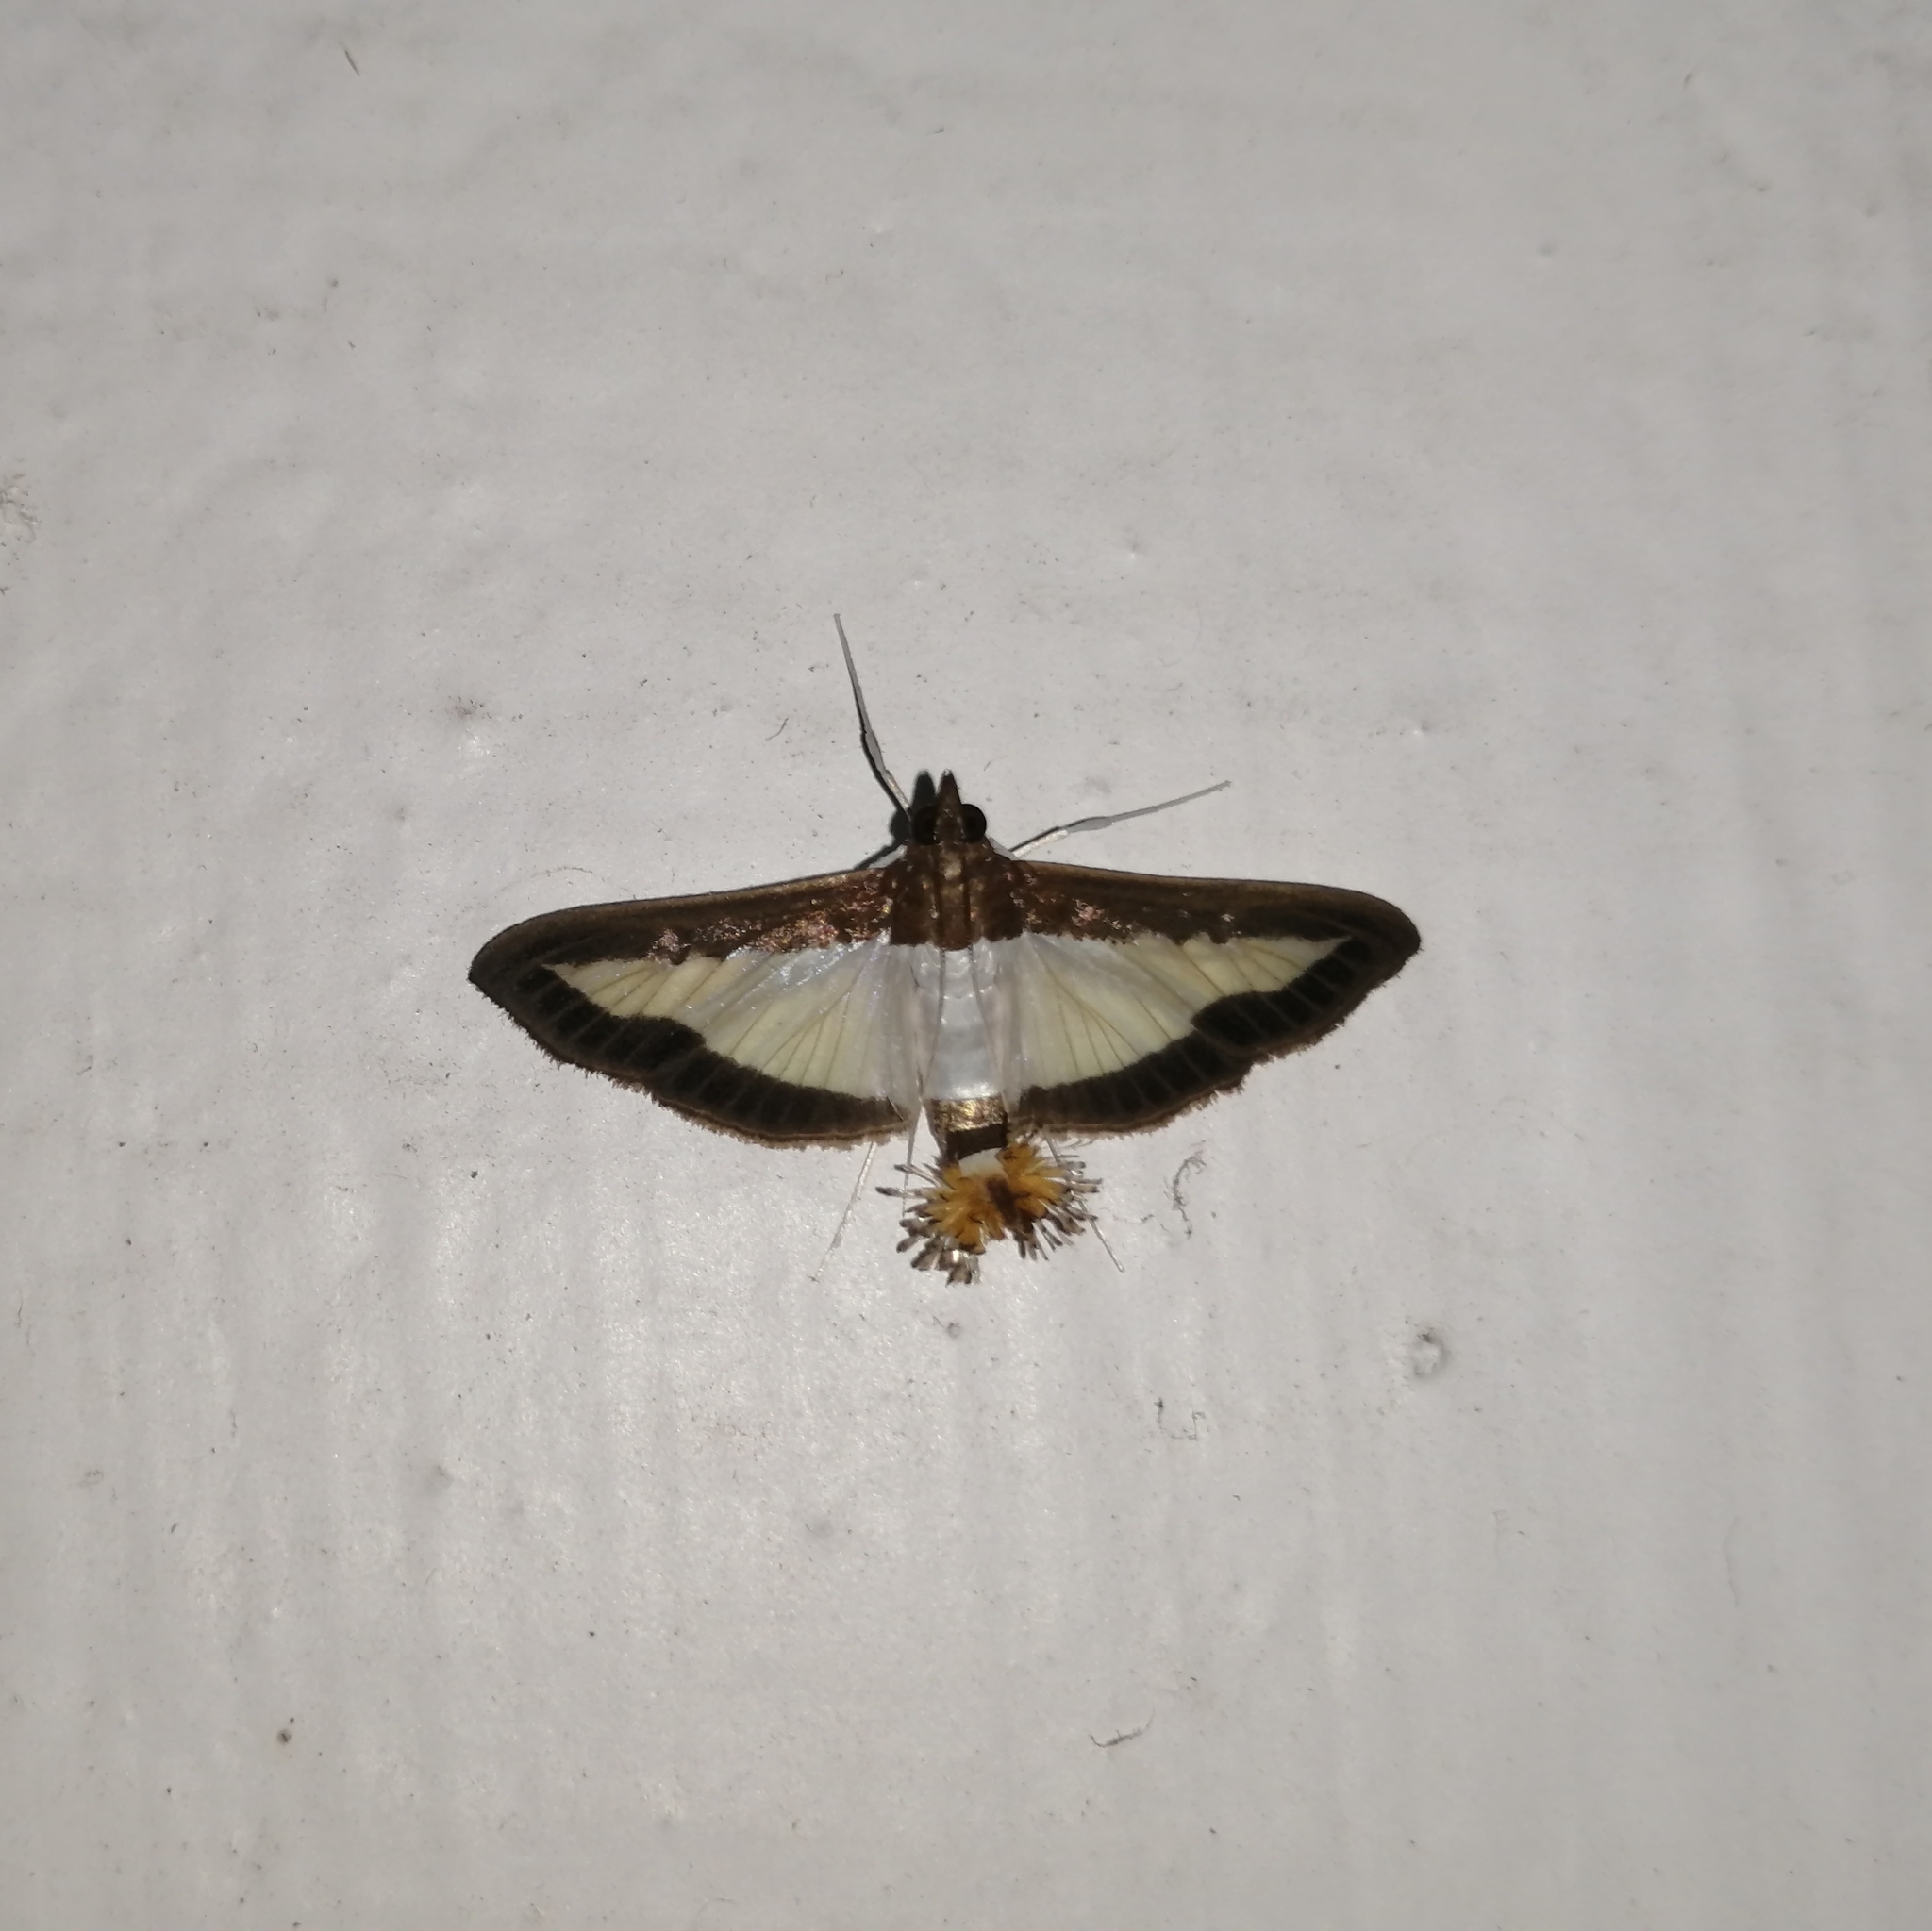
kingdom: Animalia
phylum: Arthropoda
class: Insecta
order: Lepidoptera
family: Crambidae
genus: Diaphania
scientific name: Diaphania indica
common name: Cucumber moth
